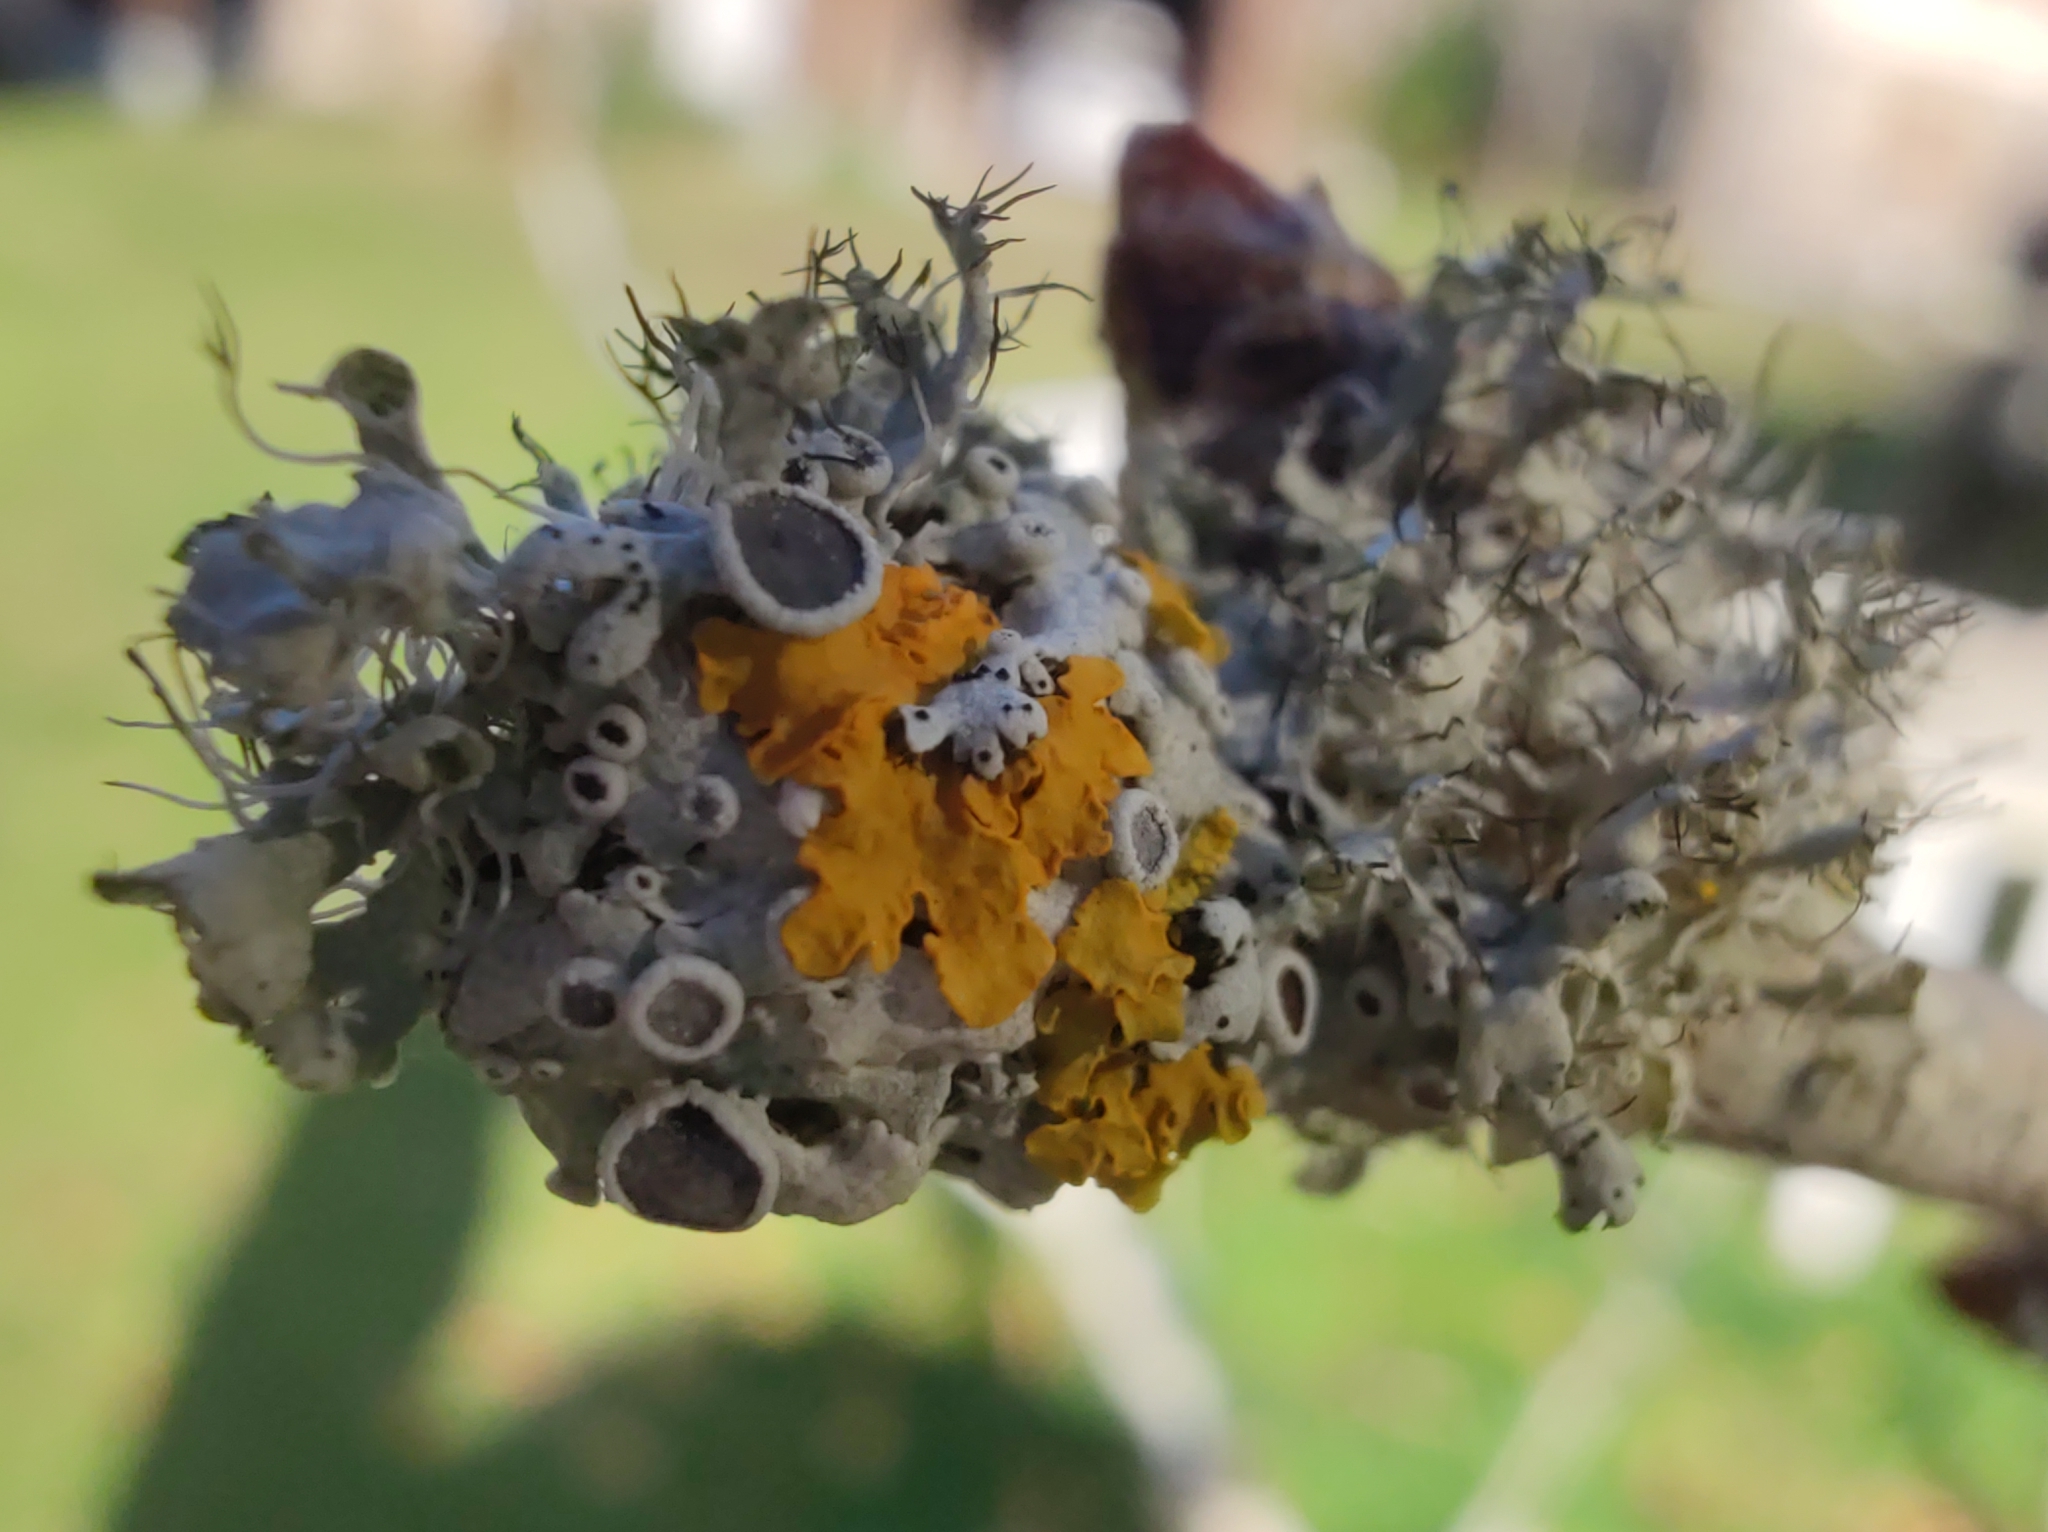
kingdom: Fungi
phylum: Ascomycota
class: Lecanoromycetes
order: Caliciales
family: Physciaceae
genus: Physcia
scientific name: Physcia adscendens
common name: Hooded rosette lichen
